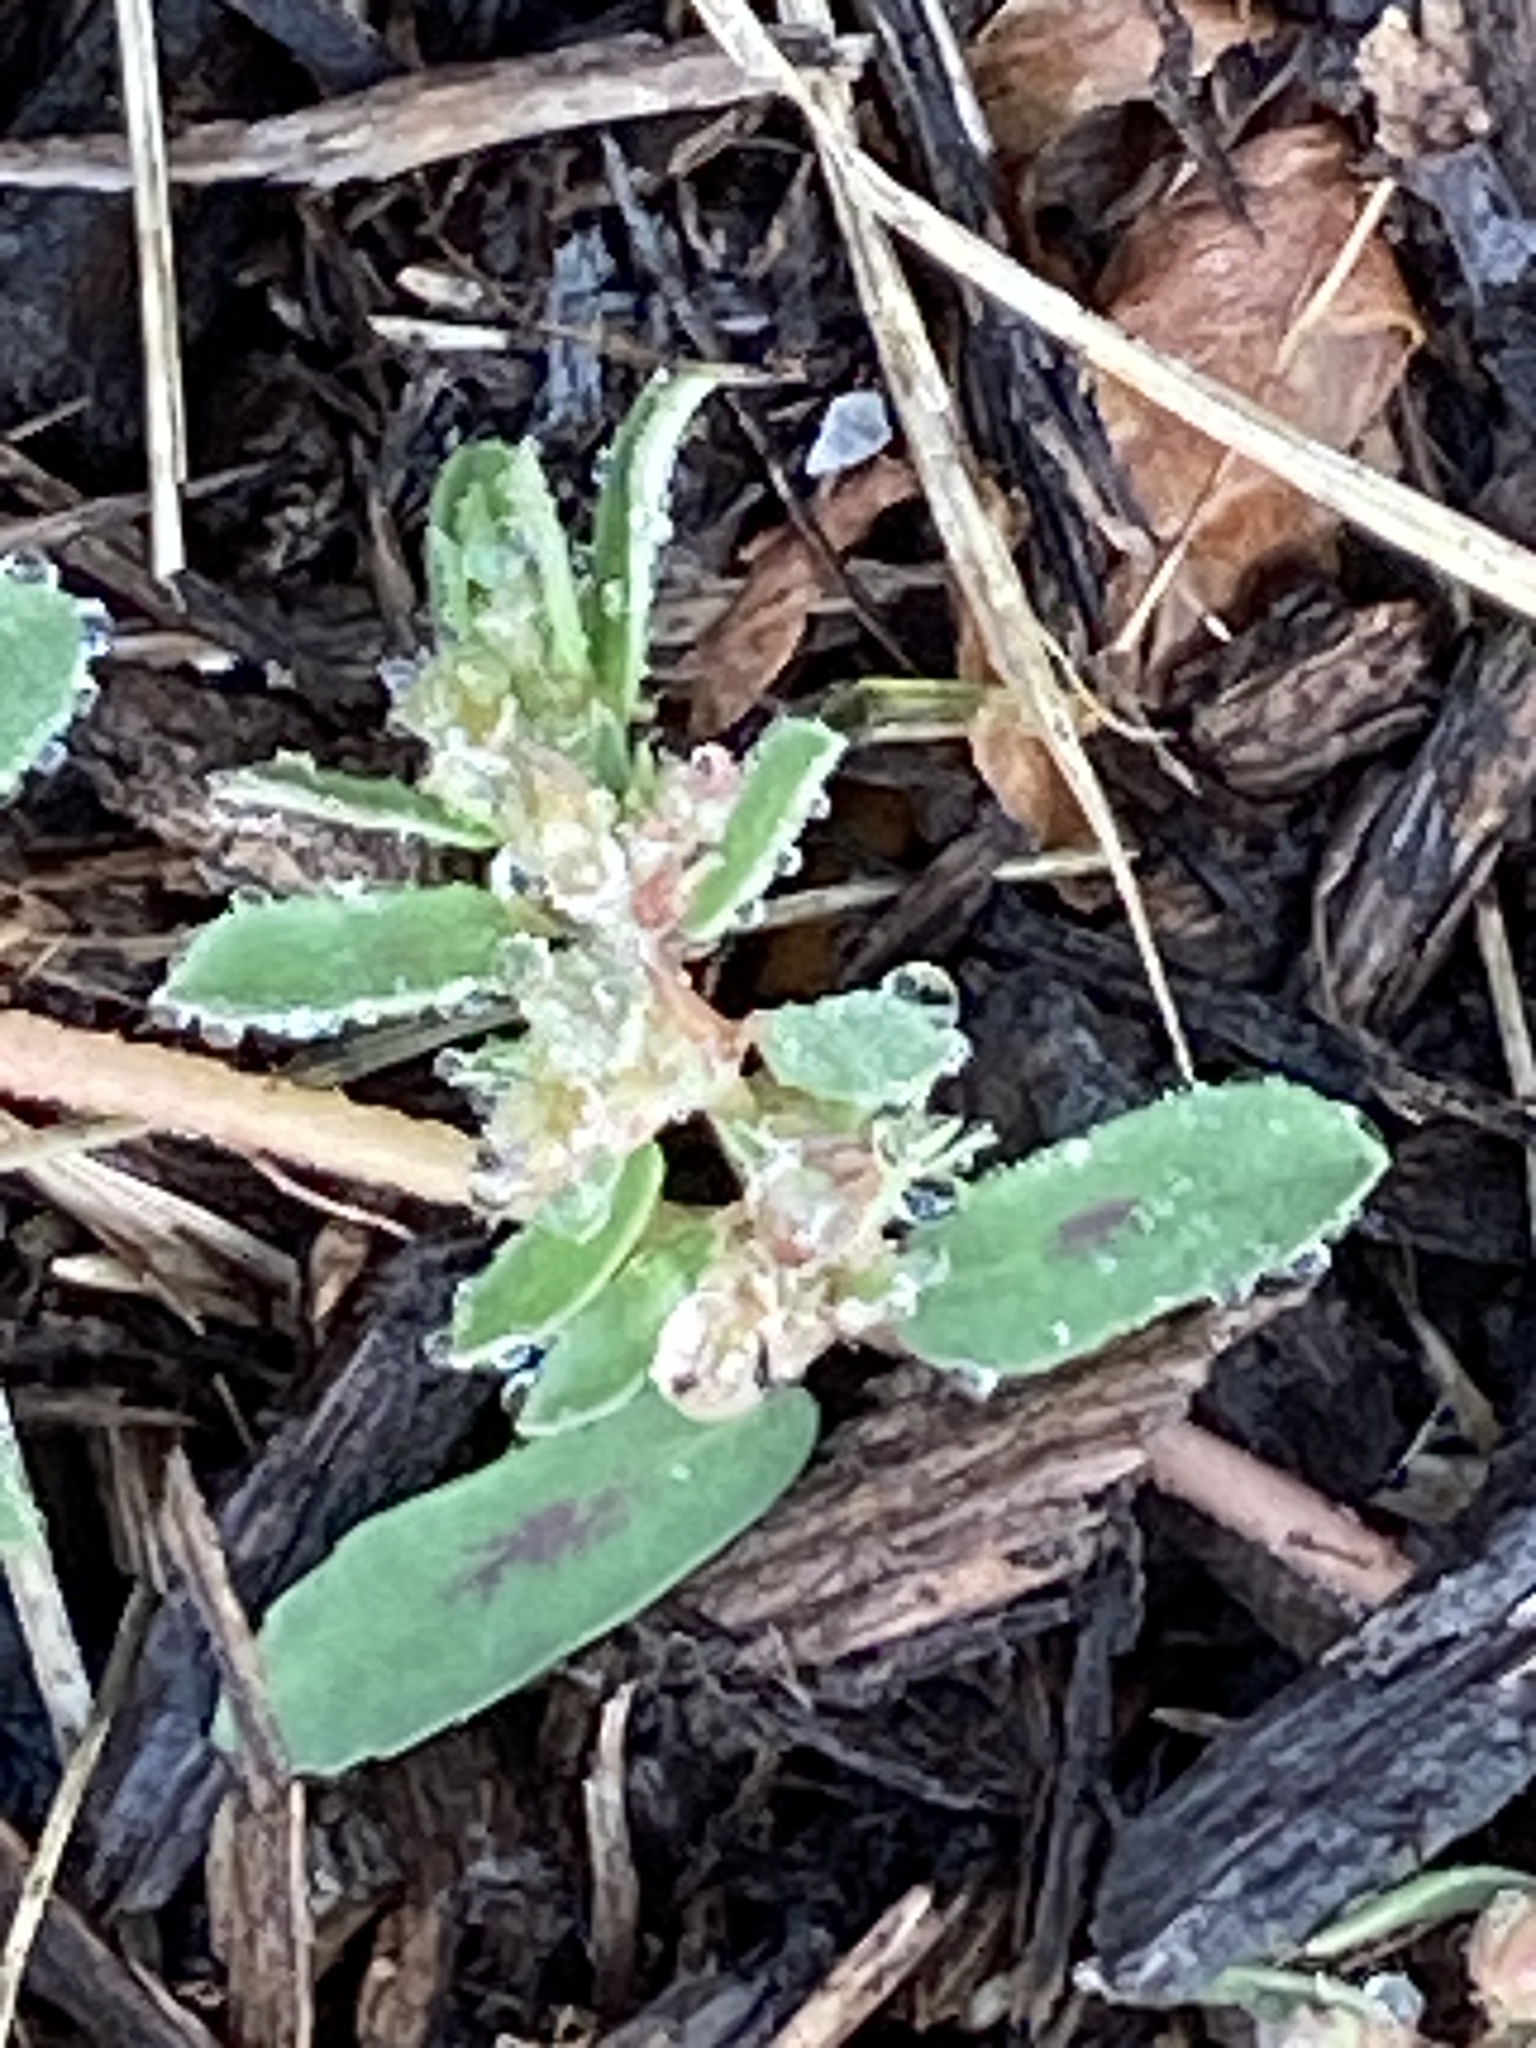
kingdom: Plantae
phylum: Tracheophyta
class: Magnoliopsida
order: Malpighiales
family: Euphorbiaceae
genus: Euphorbia
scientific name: Euphorbia maculata
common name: Spotted spurge
